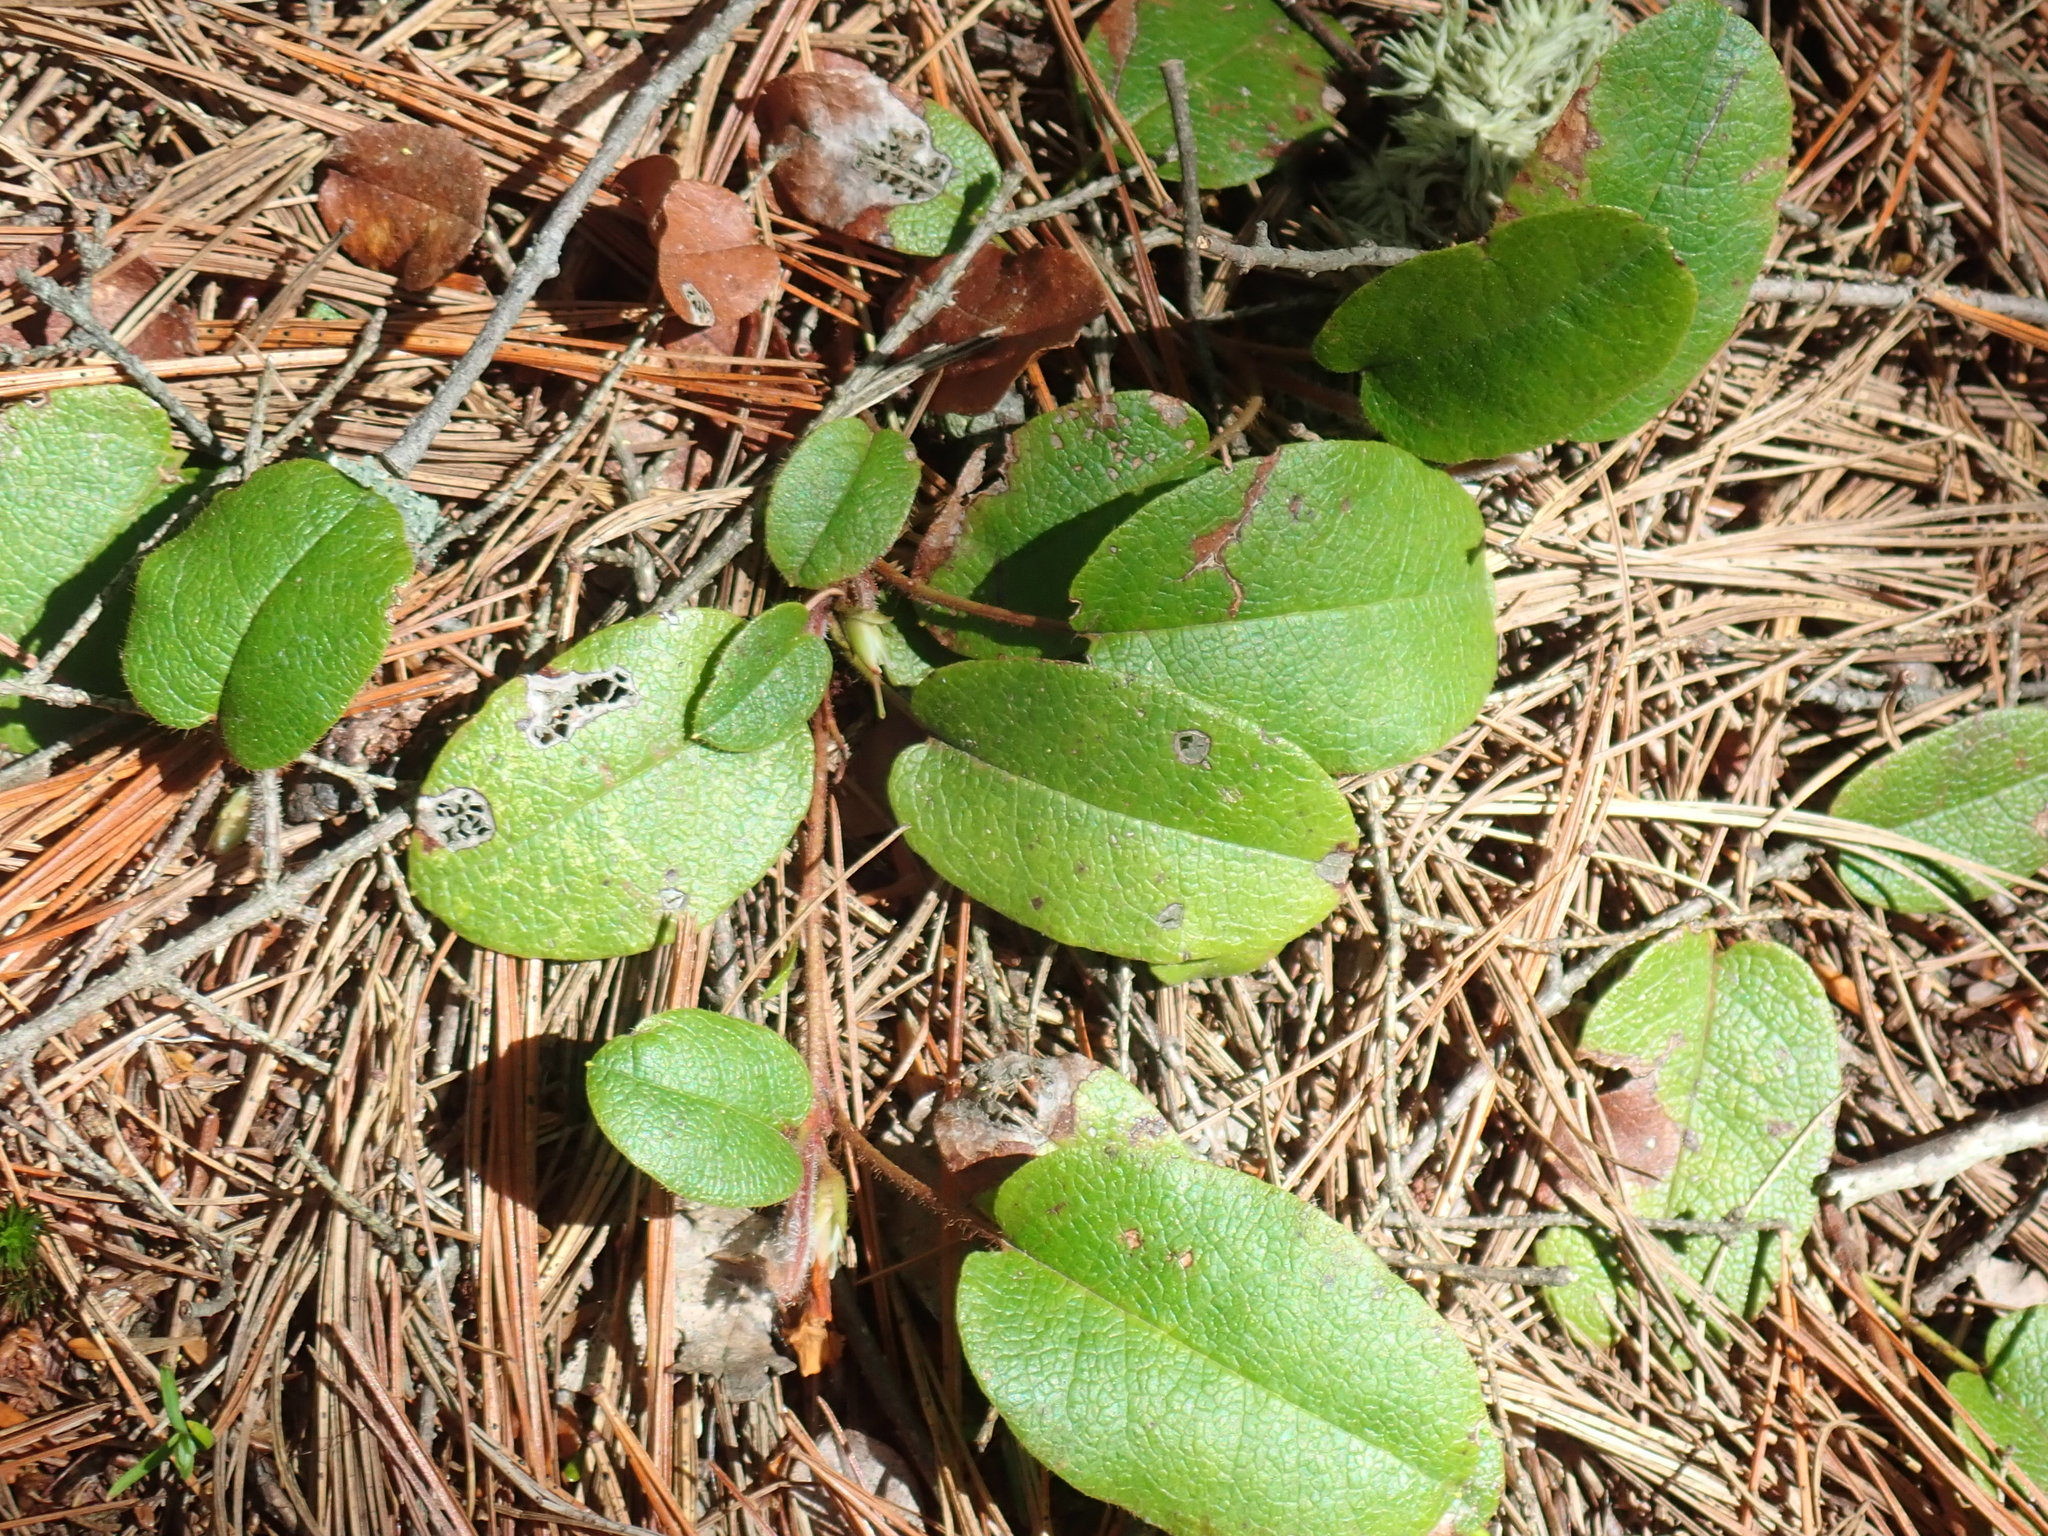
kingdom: Plantae
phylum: Tracheophyta
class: Magnoliopsida
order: Ericales
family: Ericaceae
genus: Epigaea
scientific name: Epigaea repens
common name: Gravelroot
